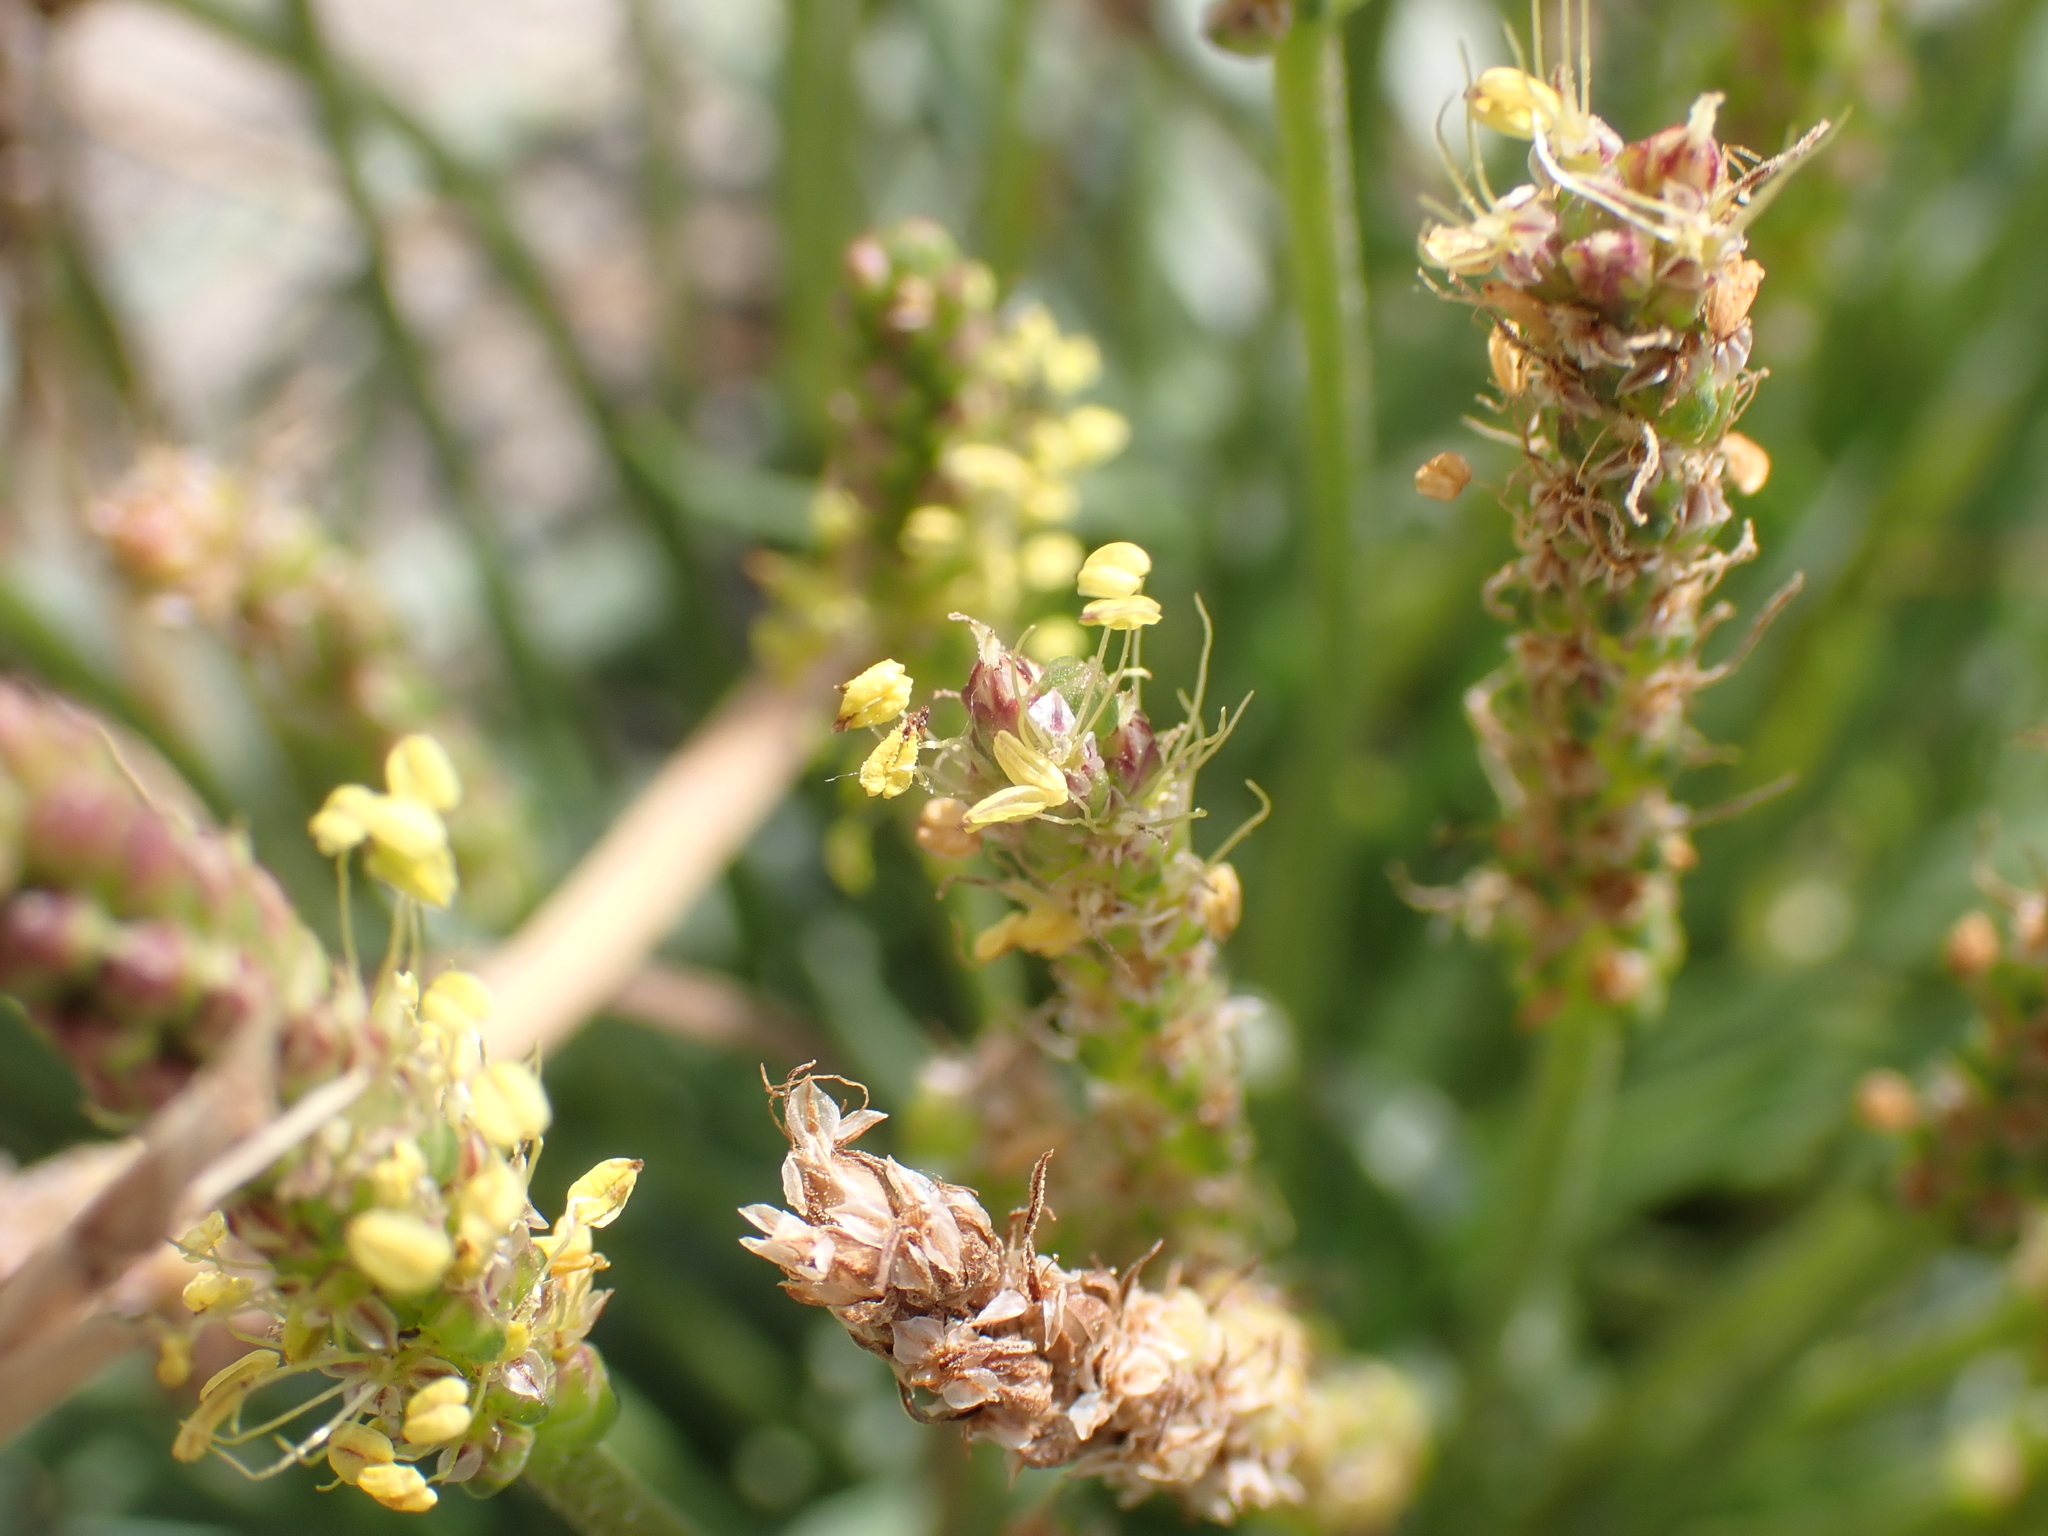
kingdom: Plantae
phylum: Tracheophyta
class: Magnoliopsida
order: Lamiales
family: Plantaginaceae
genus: Plantago
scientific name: Plantago maritima
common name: Sea plantain
